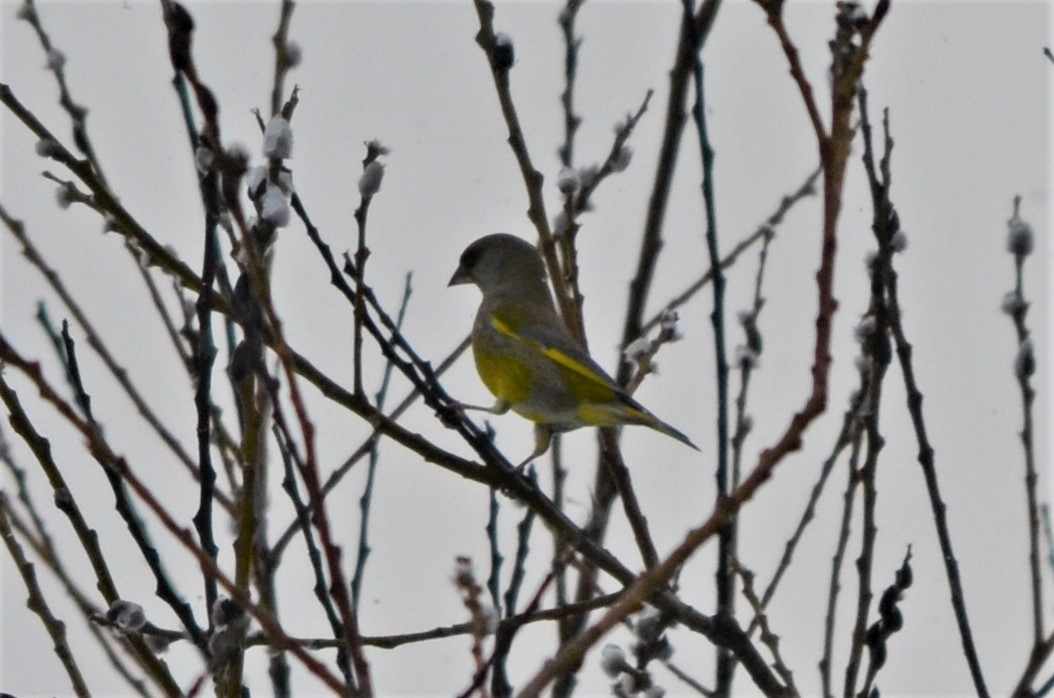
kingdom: Plantae
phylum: Tracheophyta
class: Liliopsida
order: Poales
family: Poaceae
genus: Chloris
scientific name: Chloris chloris
